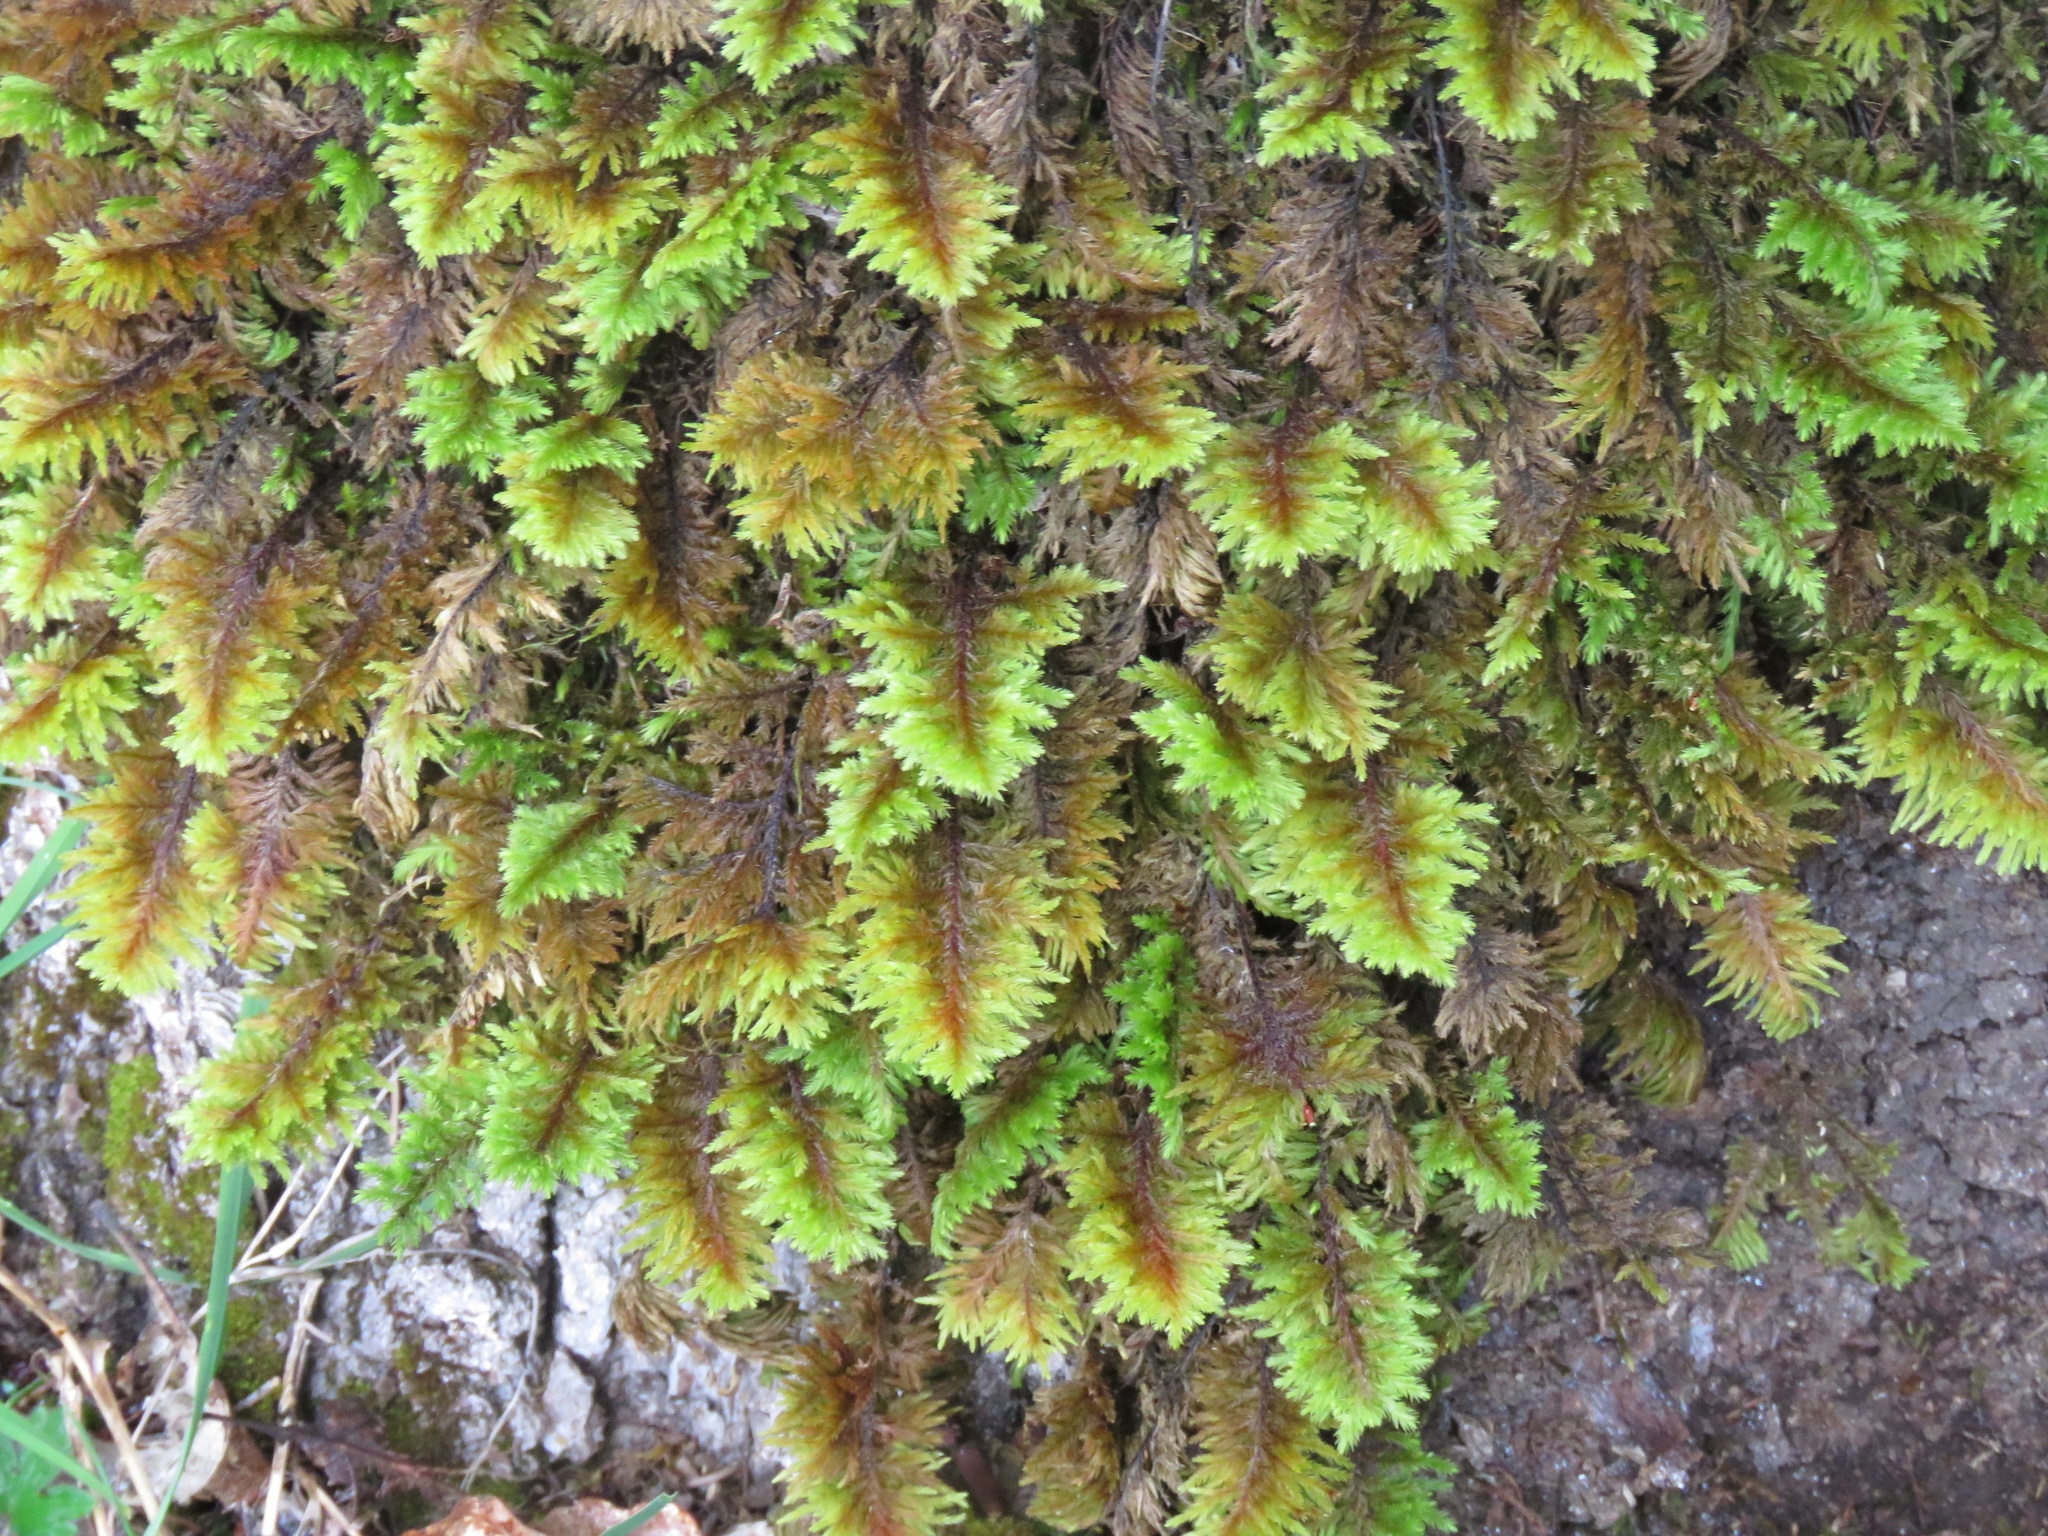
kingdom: Plantae
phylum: Bryophyta
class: Bryopsida
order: Hypnales
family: Cryphaeaceae
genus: Dendroalsia
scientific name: Dendroalsia abietina
